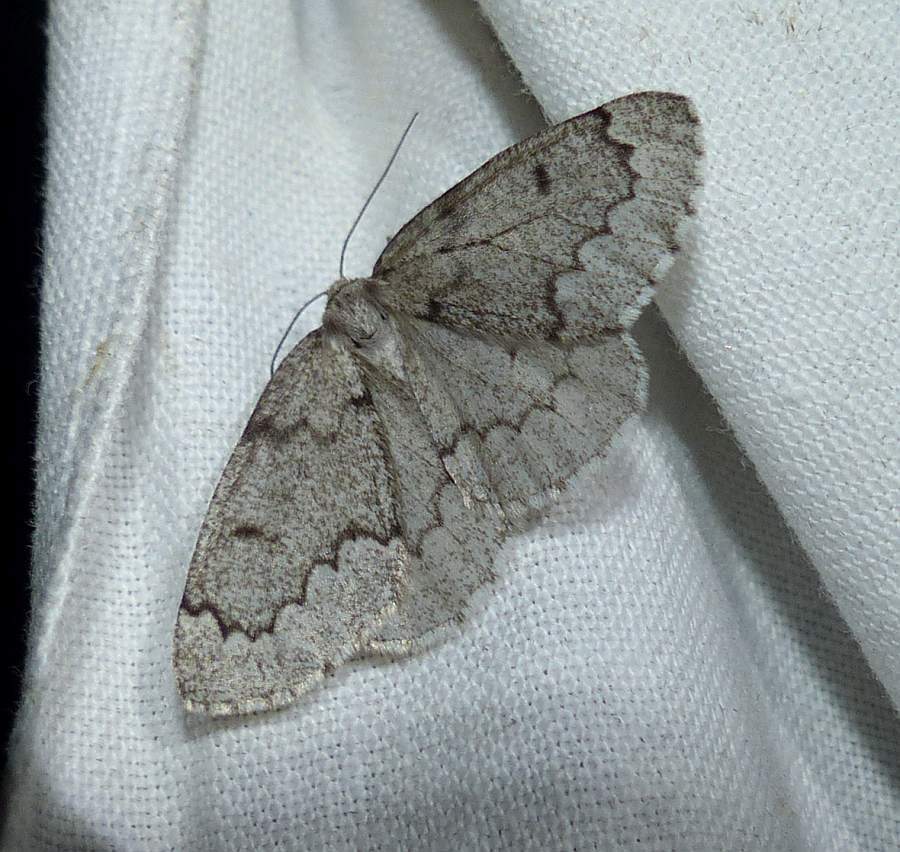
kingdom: Animalia
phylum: Arthropoda
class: Insecta
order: Lepidoptera
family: Geometridae
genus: Nepytia
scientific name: Nepytia pellucidaria
